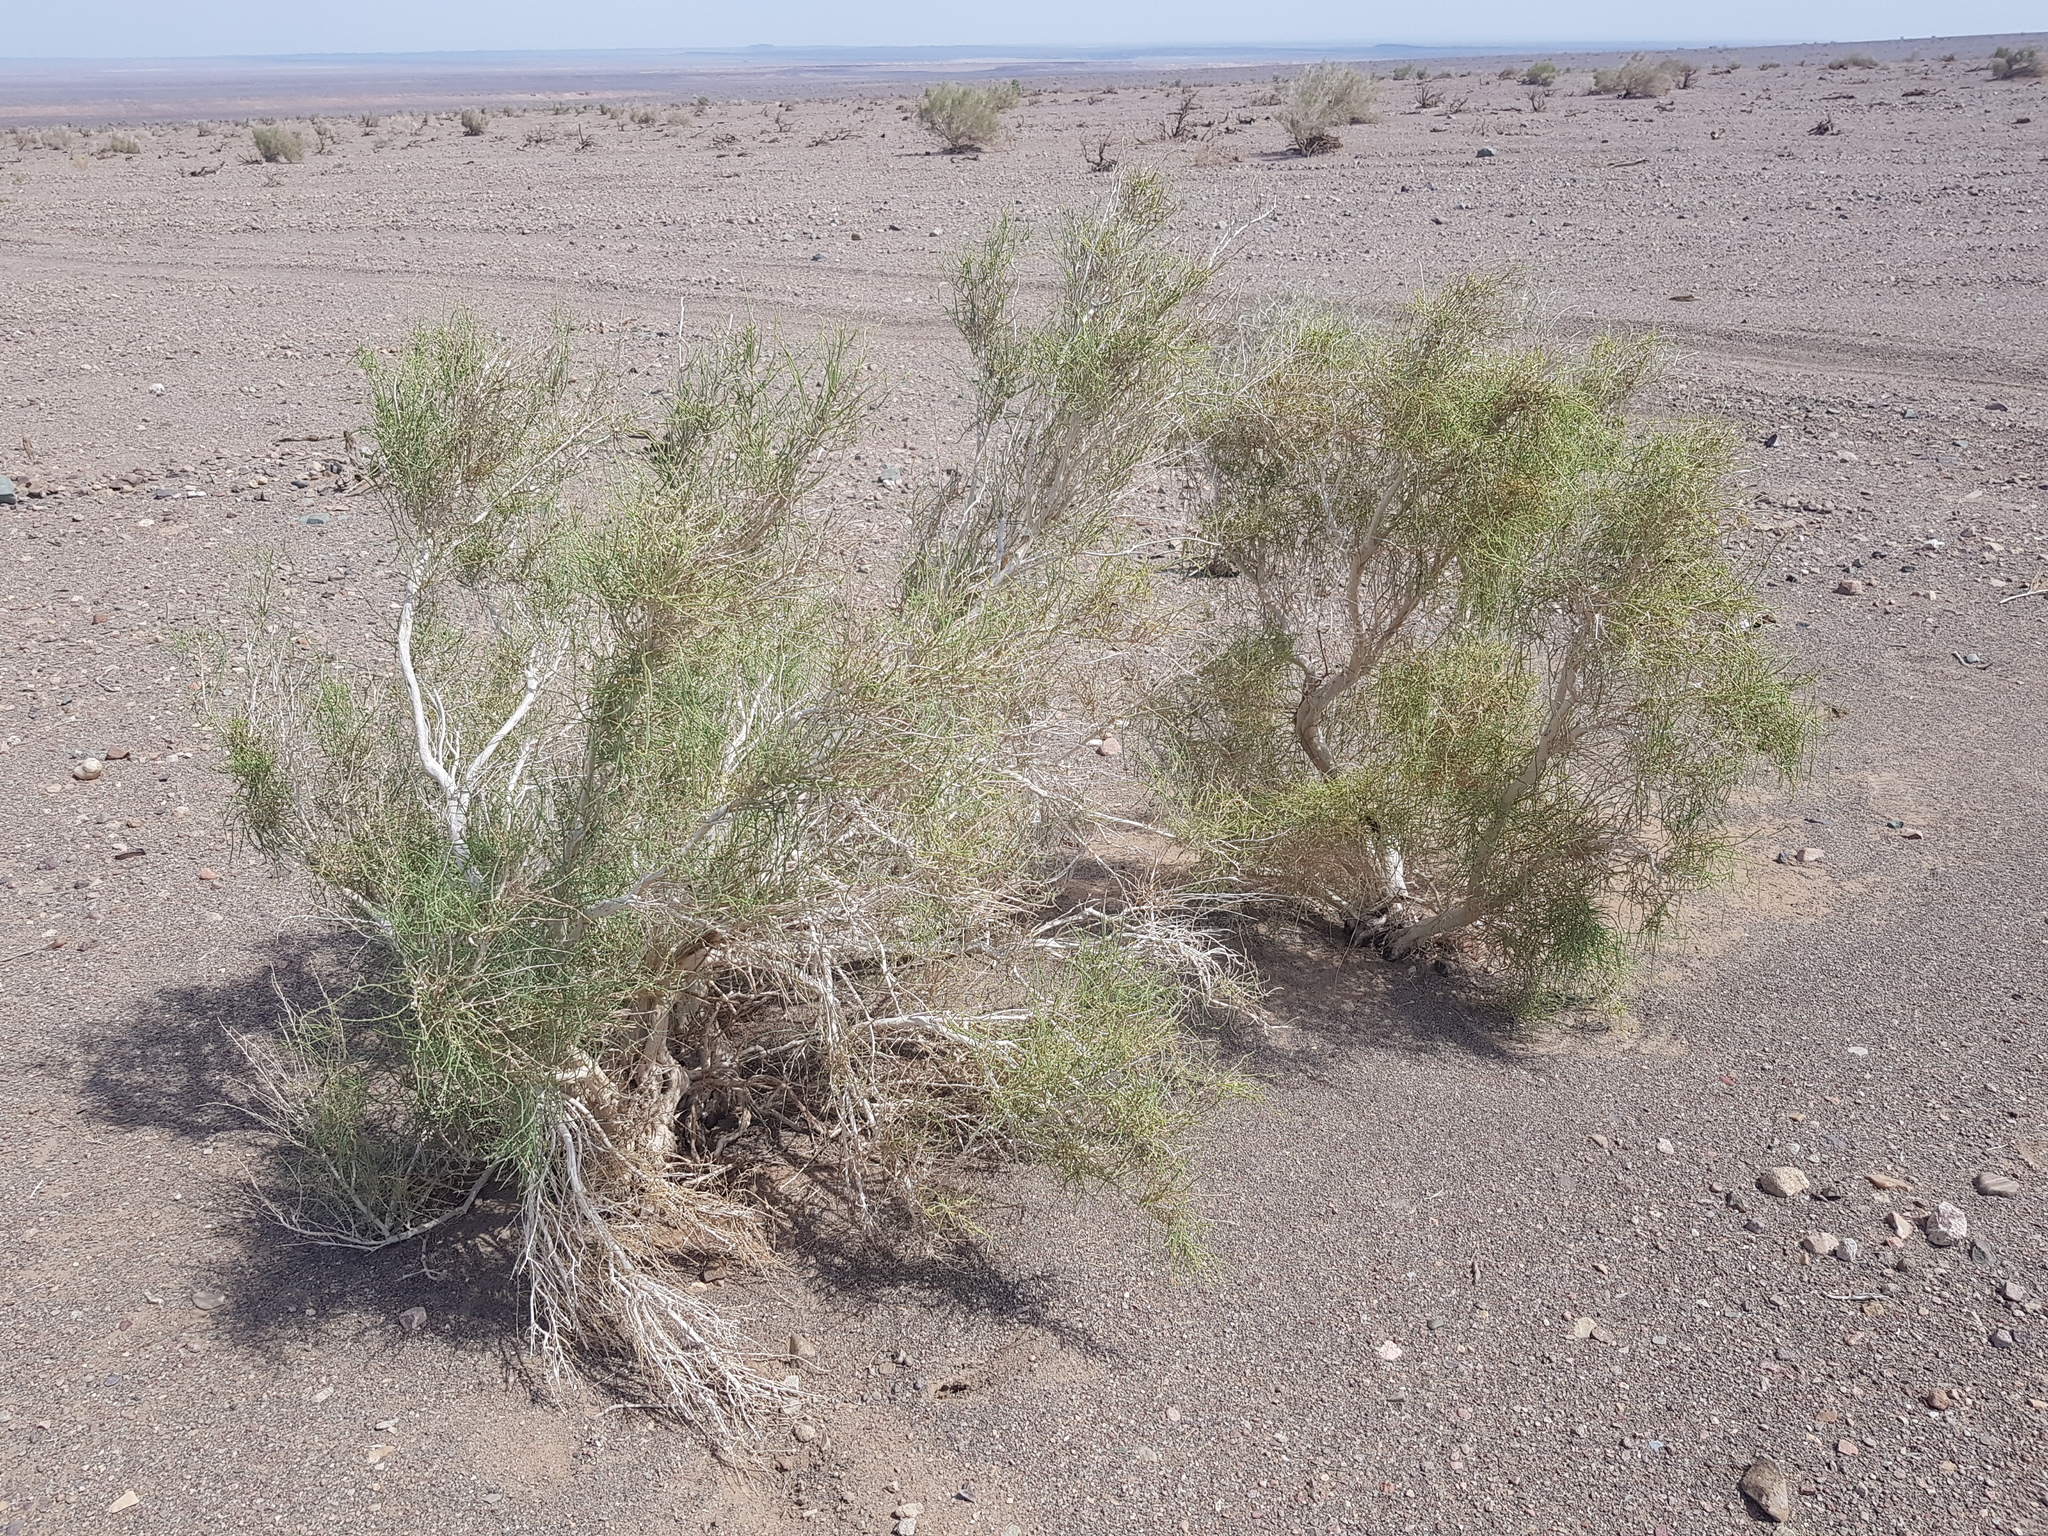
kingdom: Plantae
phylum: Tracheophyta
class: Magnoliopsida
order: Caryophyllales
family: Amaranthaceae
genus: Haloxylon
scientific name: Haloxylon ammodendron
